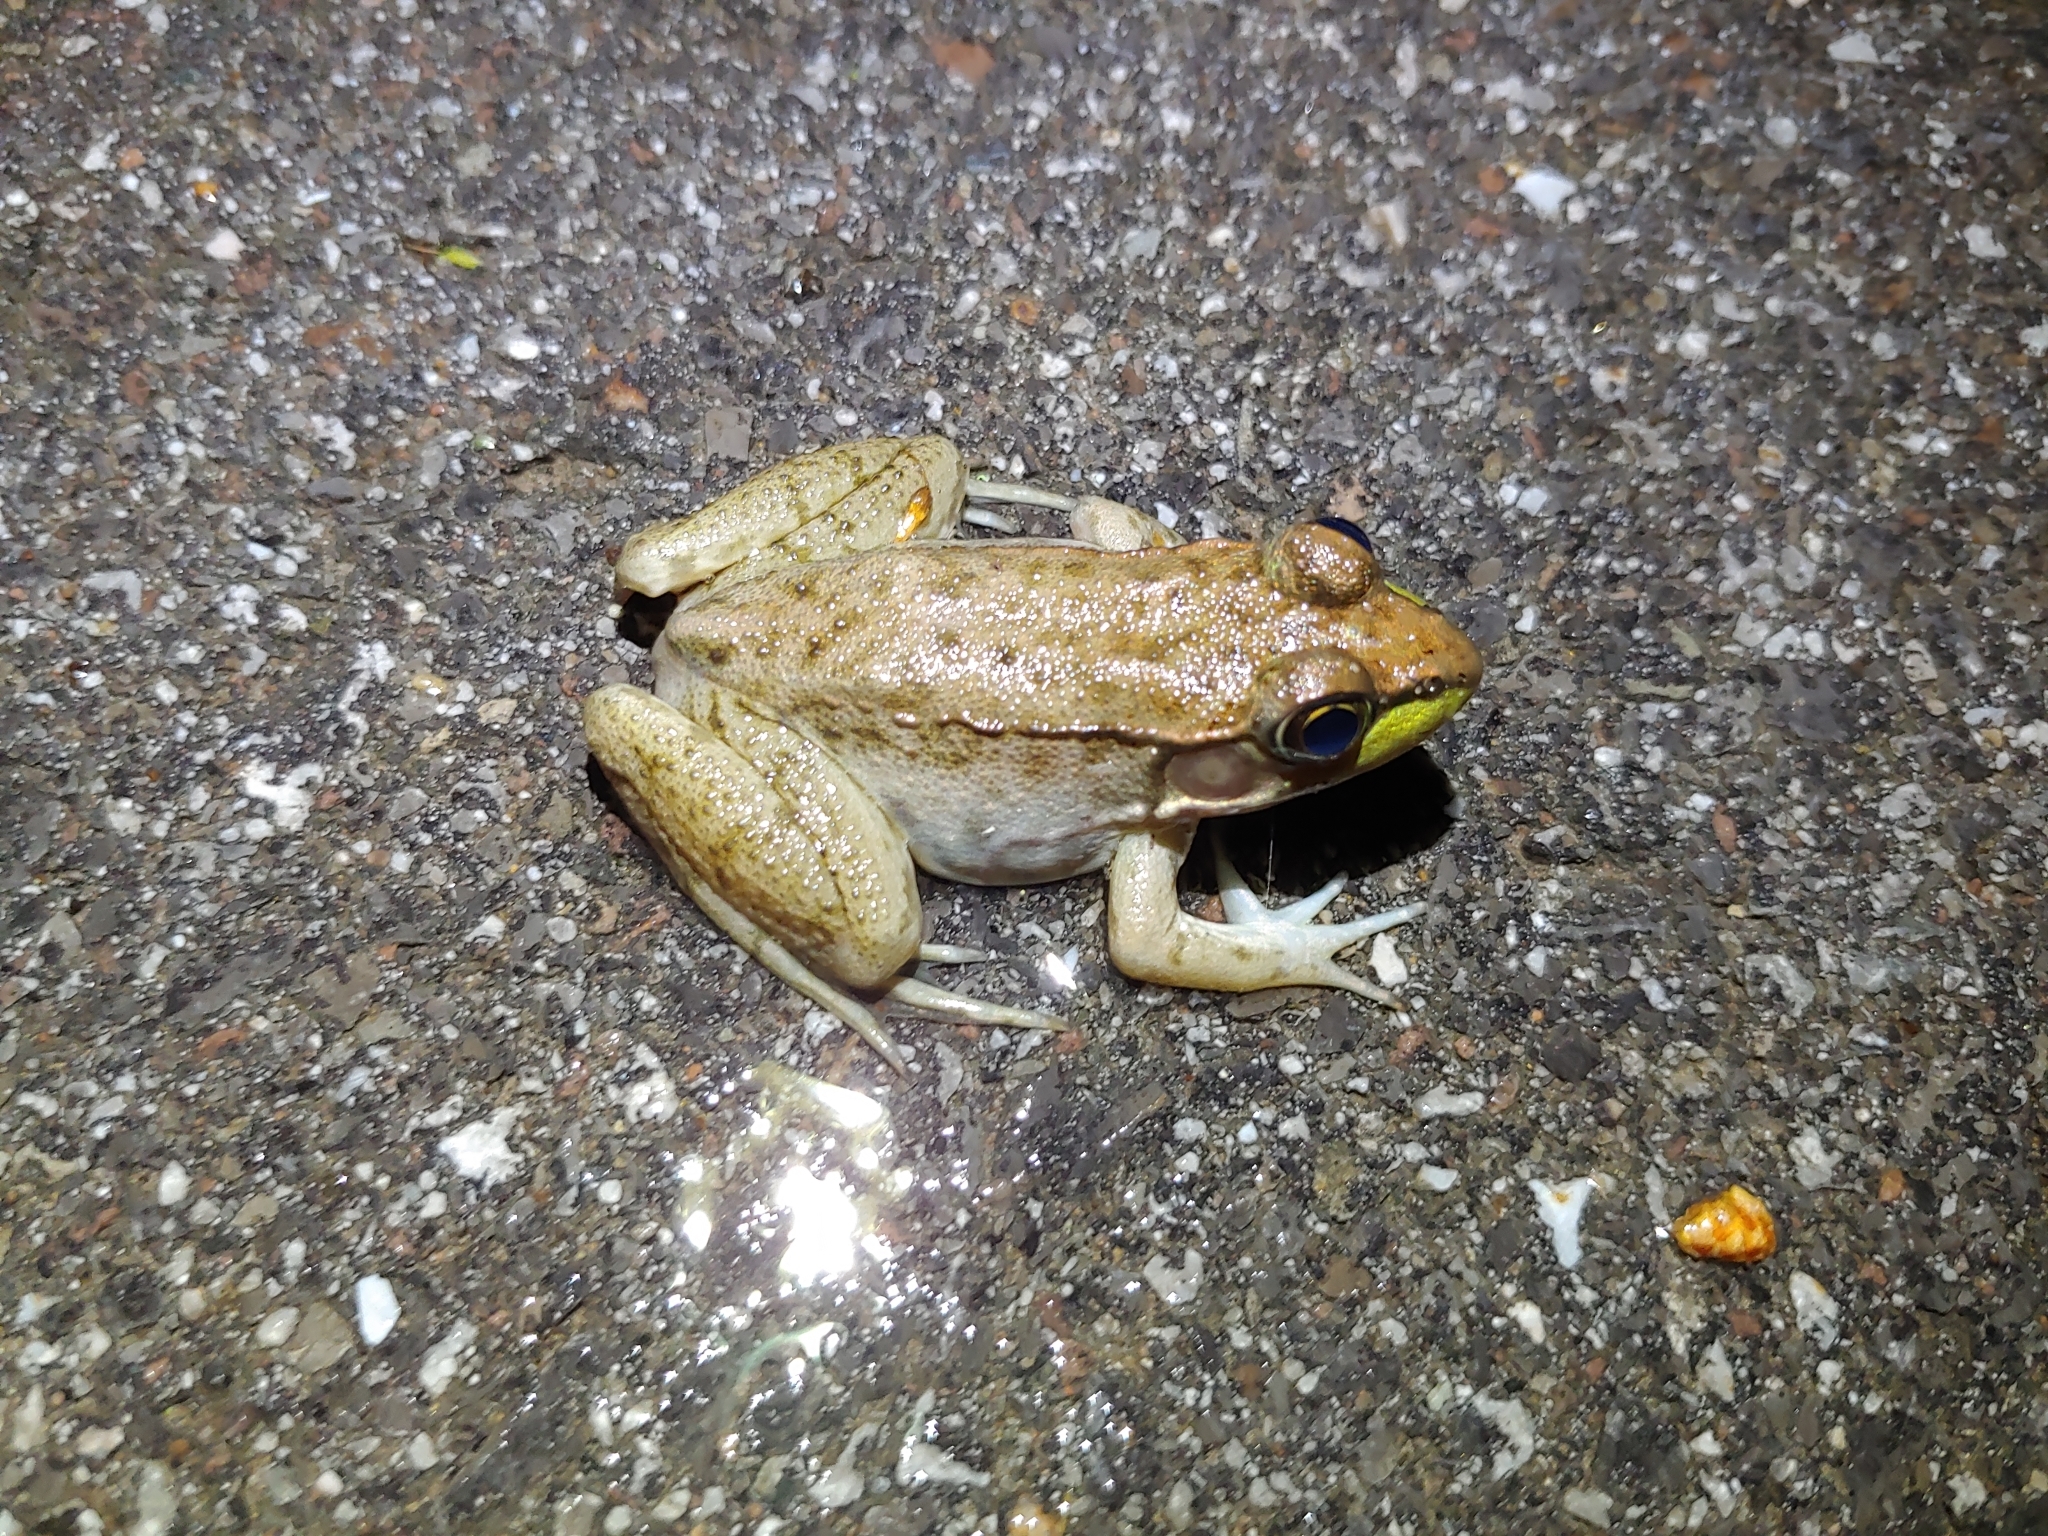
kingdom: Animalia
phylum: Chordata
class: Amphibia
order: Anura
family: Ranidae
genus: Lithobates
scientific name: Lithobates clamitans
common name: Green frog
